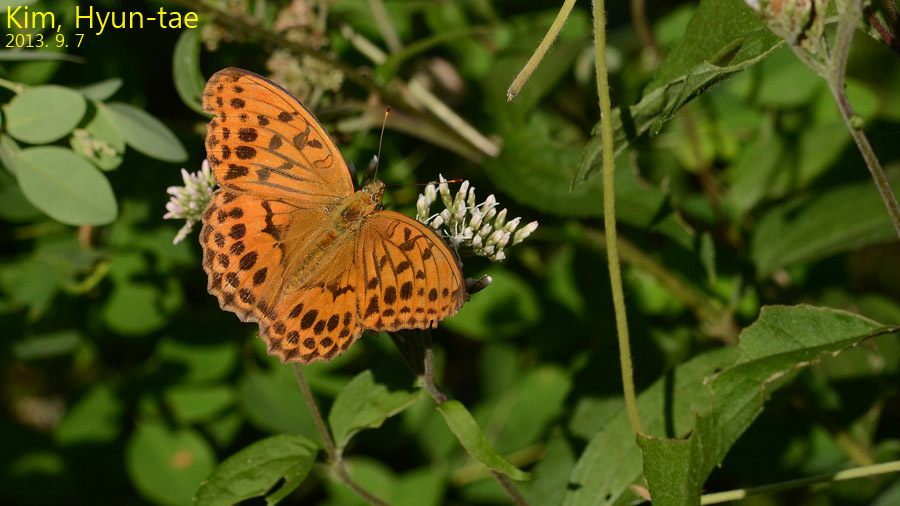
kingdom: Animalia
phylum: Arthropoda
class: Insecta
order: Lepidoptera
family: Nymphalidae
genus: Damora
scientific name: Damora sagana
